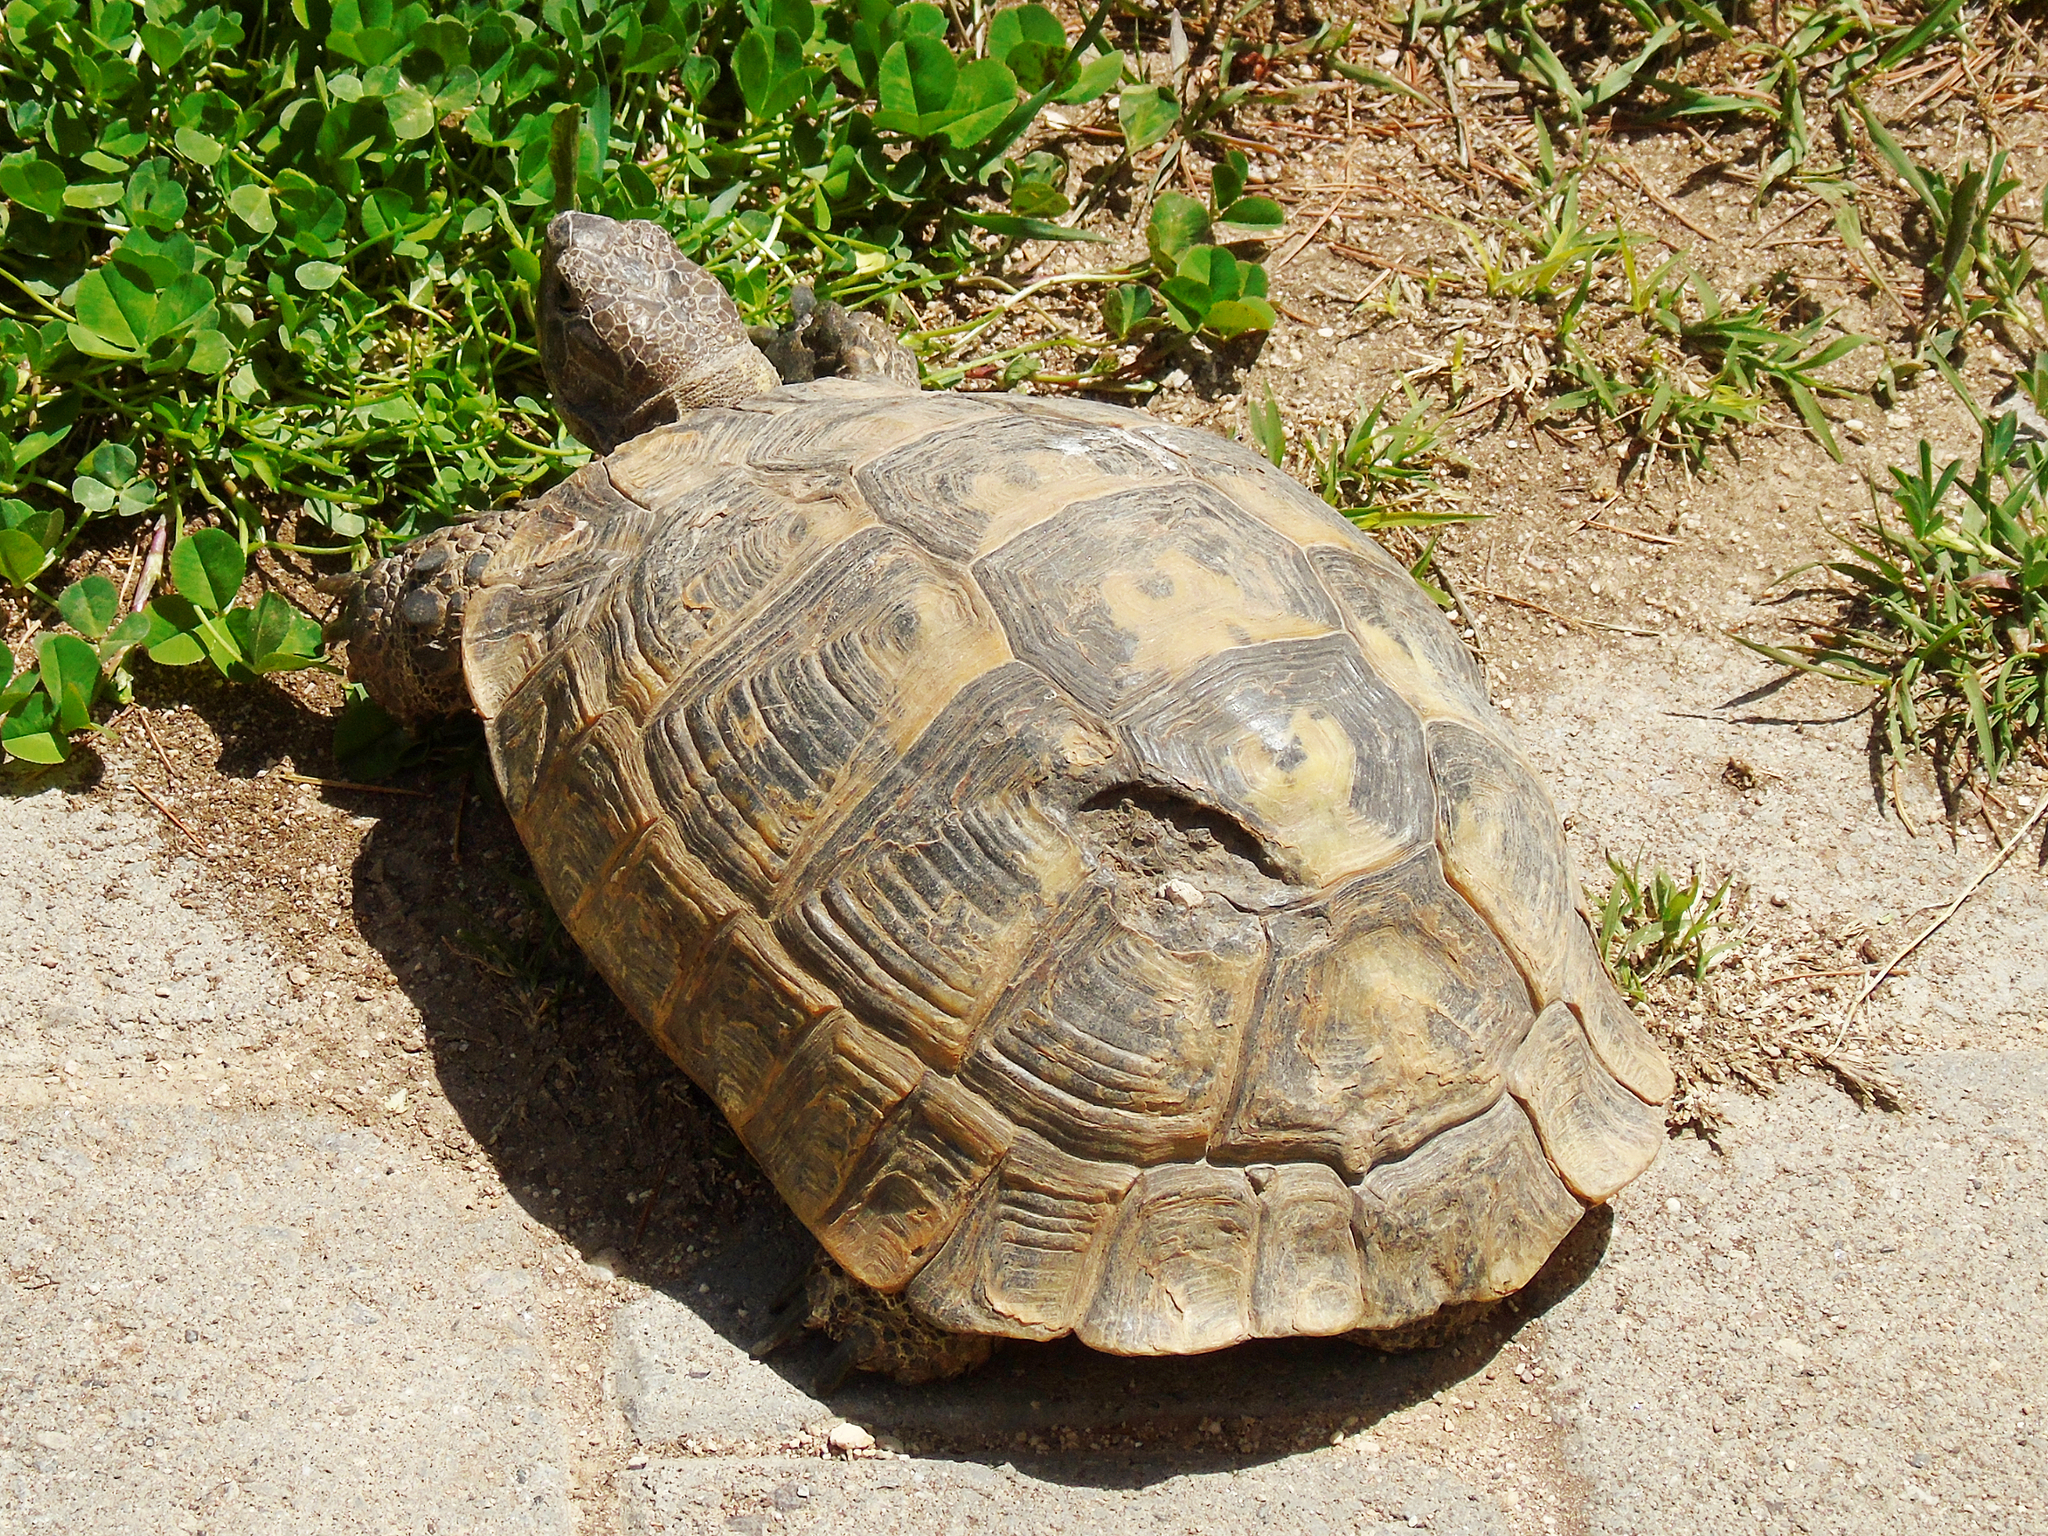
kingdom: Animalia
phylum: Chordata
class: Testudines
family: Testudinidae
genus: Testudo
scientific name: Testudo graeca
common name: Common tortoise
